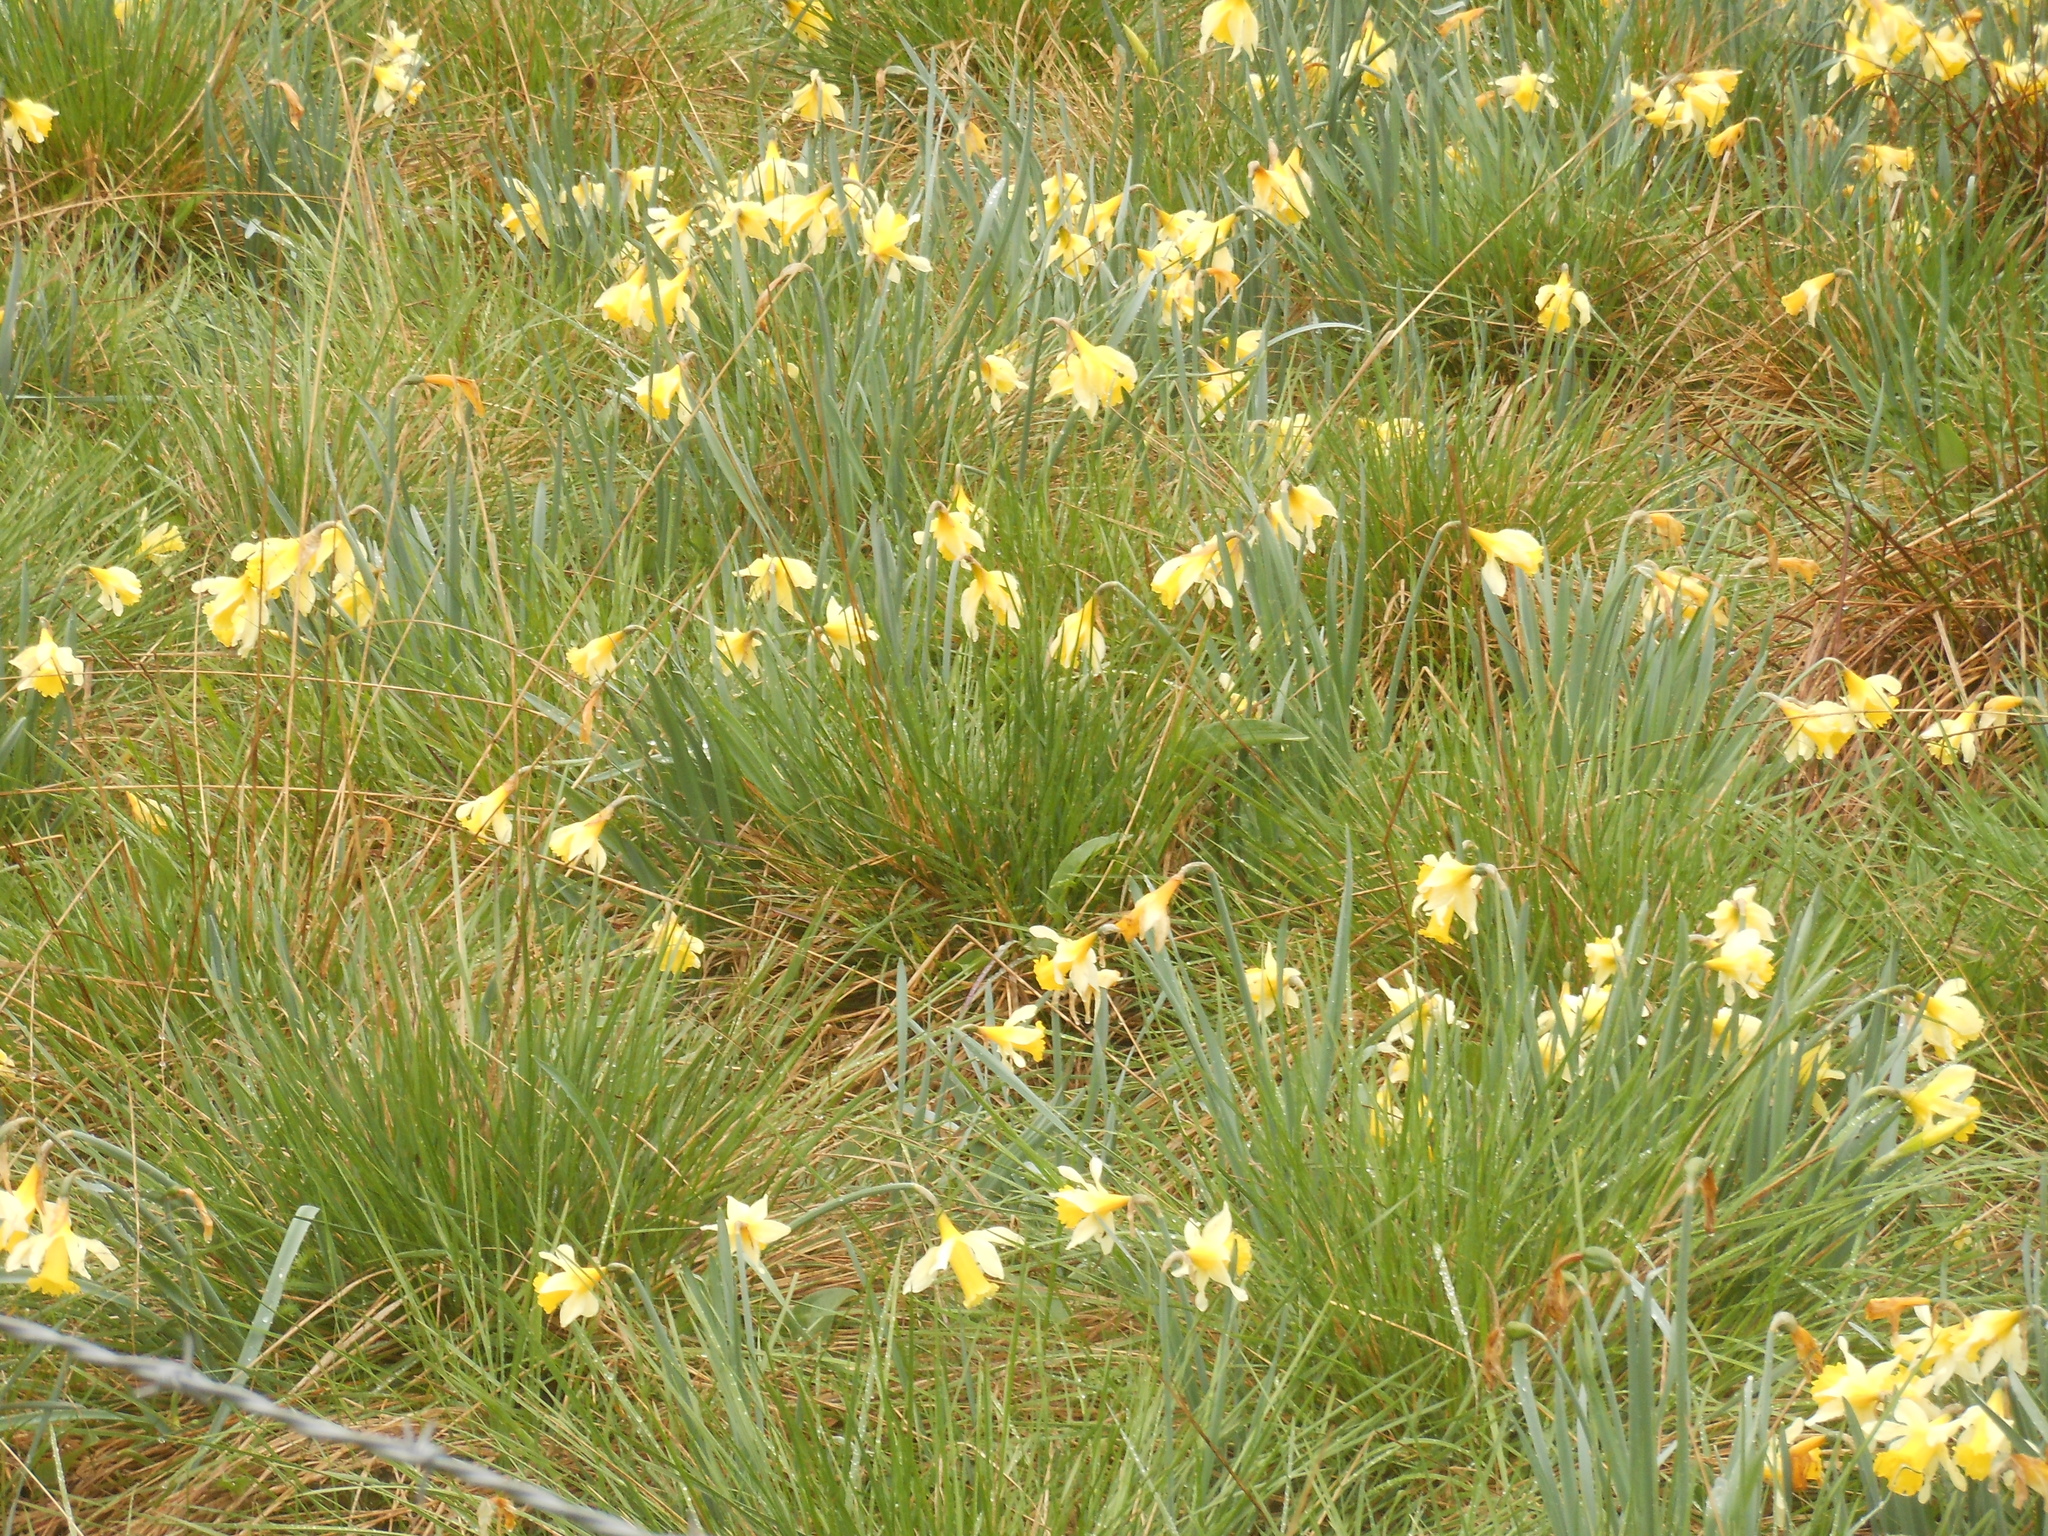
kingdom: Plantae
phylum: Tracheophyta
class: Liliopsida
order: Asparagales
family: Amaryllidaceae
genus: Narcissus
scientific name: Narcissus pseudonarcissus
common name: Daffodil
